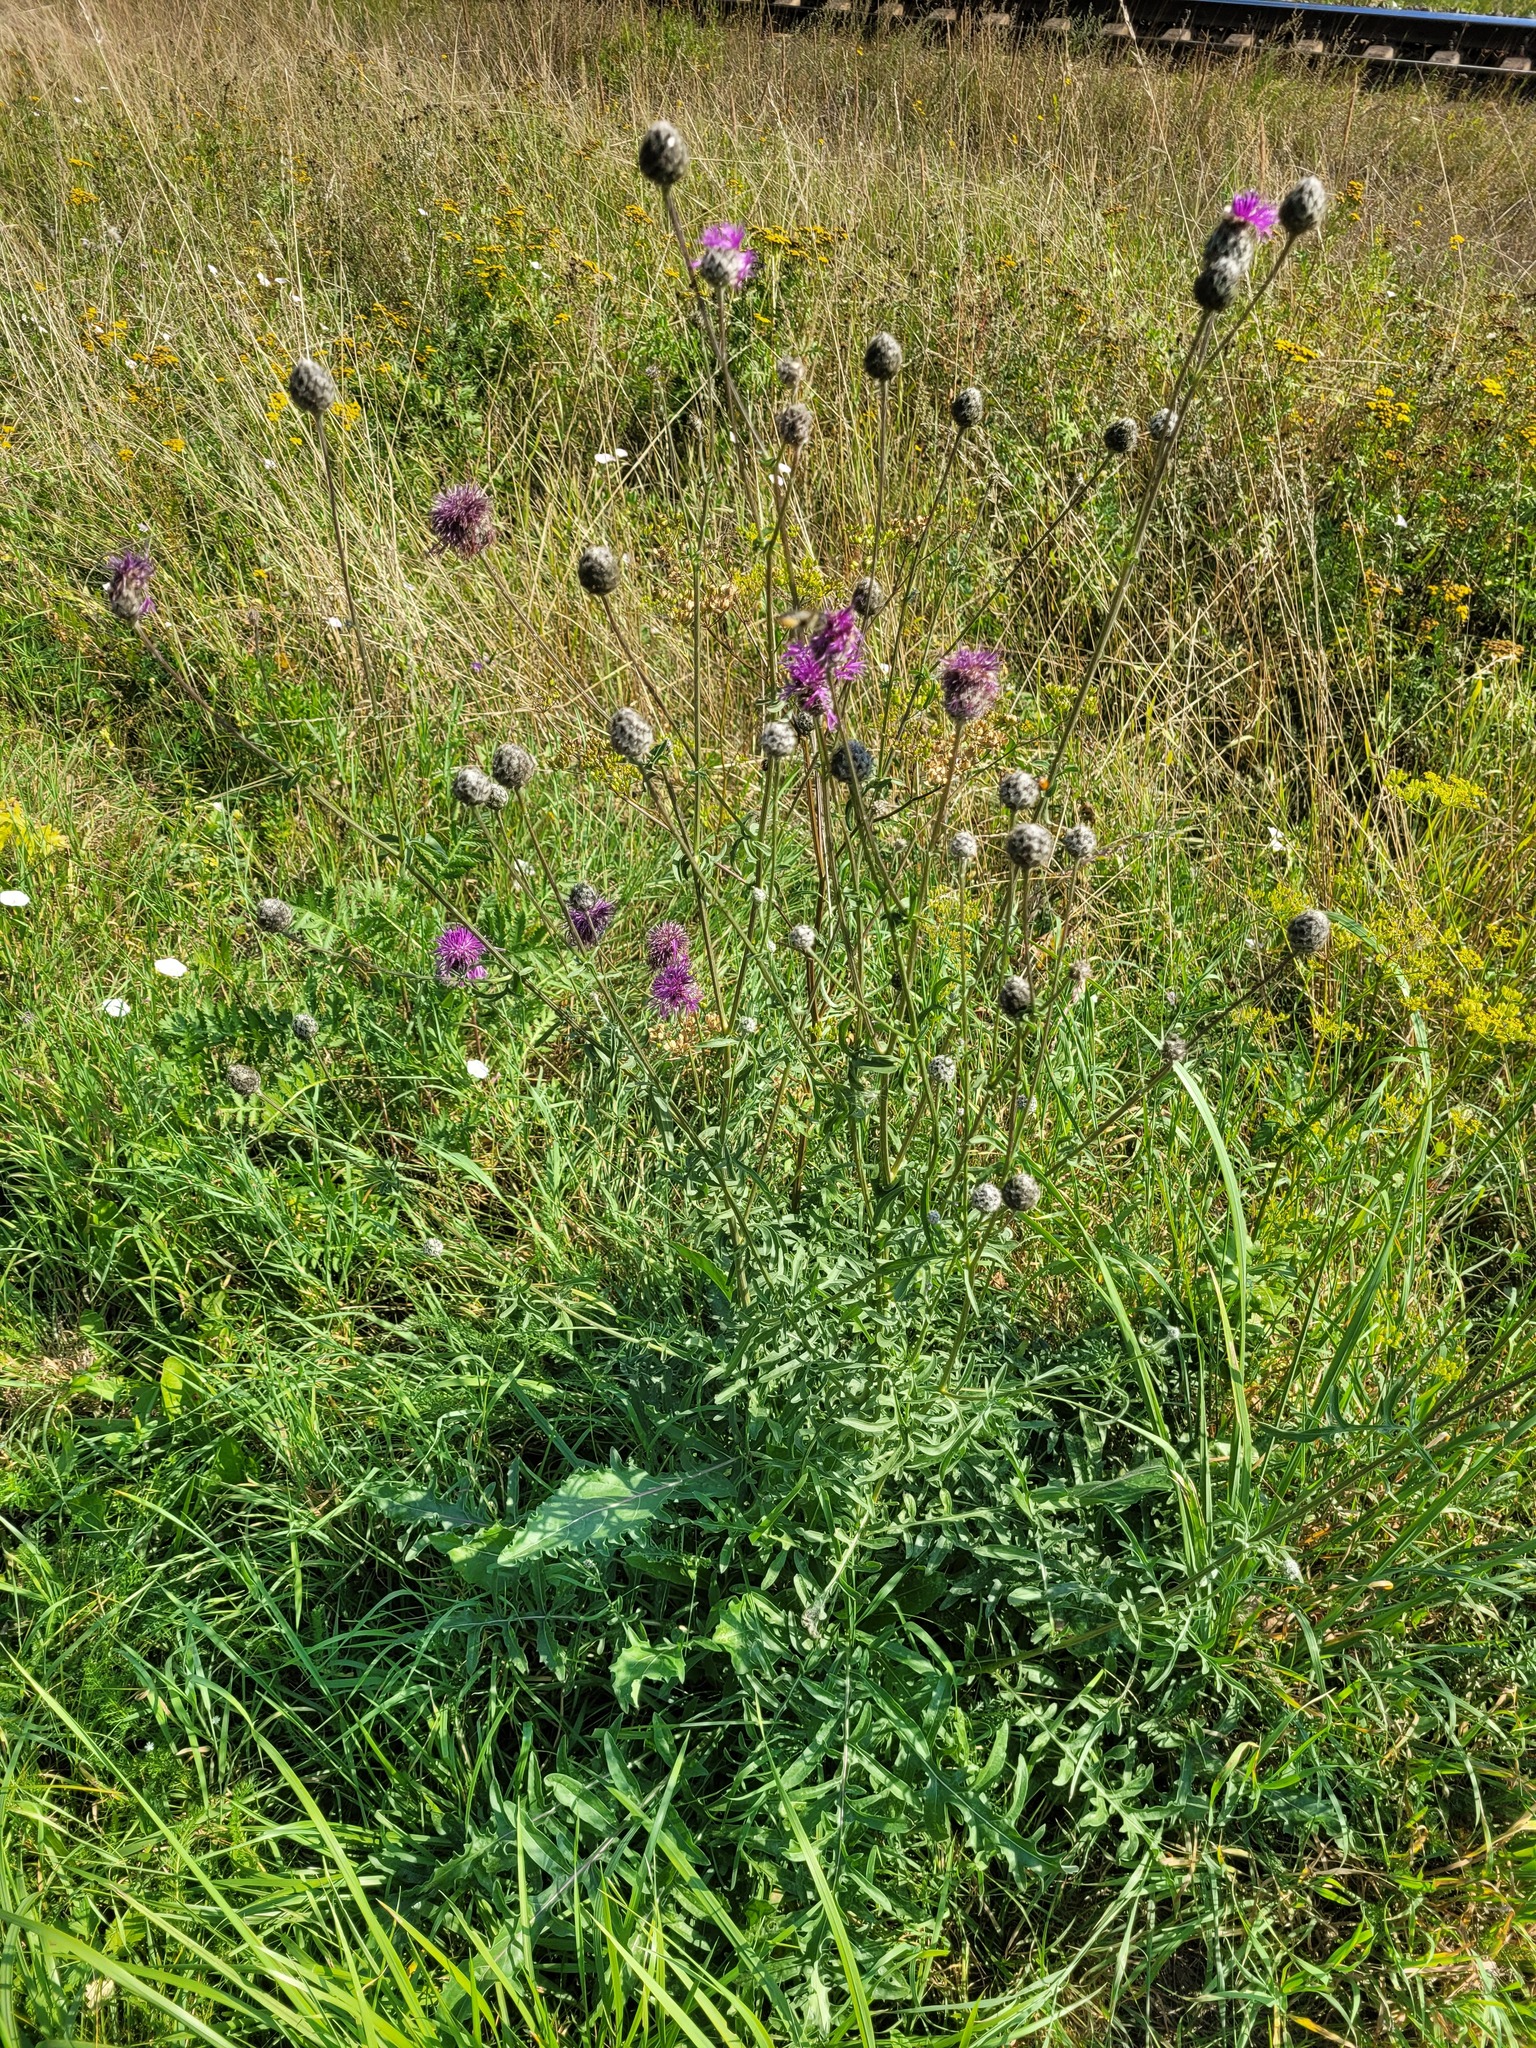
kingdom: Plantae
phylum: Tracheophyta
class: Magnoliopsida
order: Asterales
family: Asteraceae
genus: Centaurea
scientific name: Centaurea scabiosa
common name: Greater knapweed
